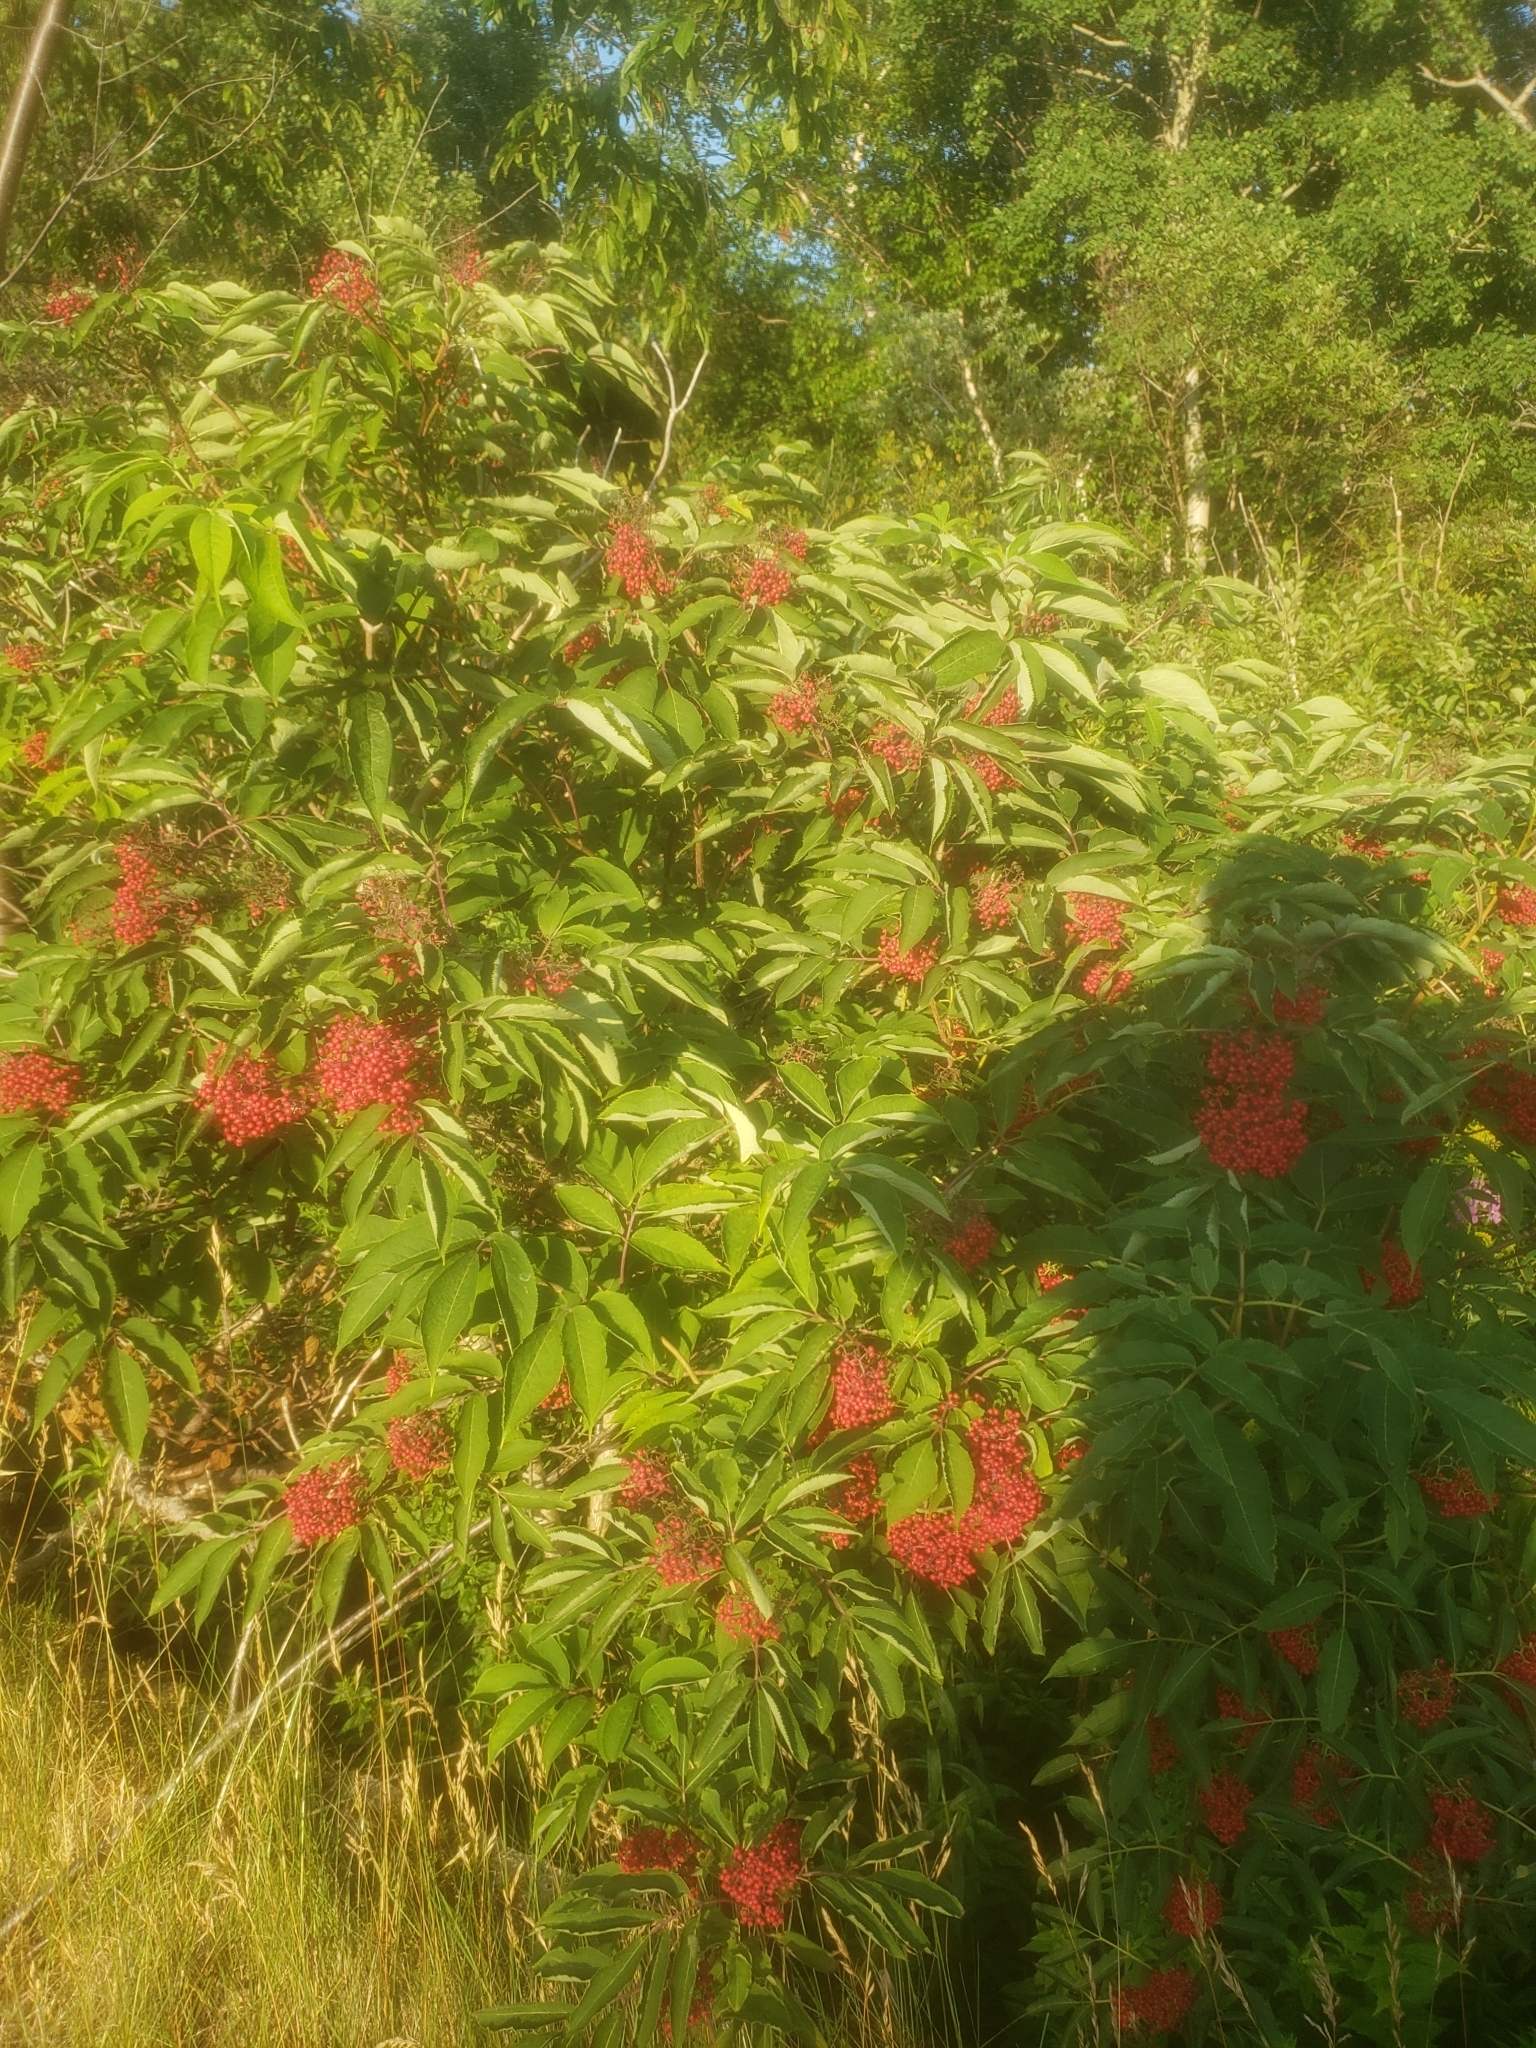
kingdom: Plantae
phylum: Tracheophyta
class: Magnoliopsida
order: Dipsacales
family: Viburnaceae
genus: Sambucus
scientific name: Sambucus racemosa
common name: Red-berried elder
